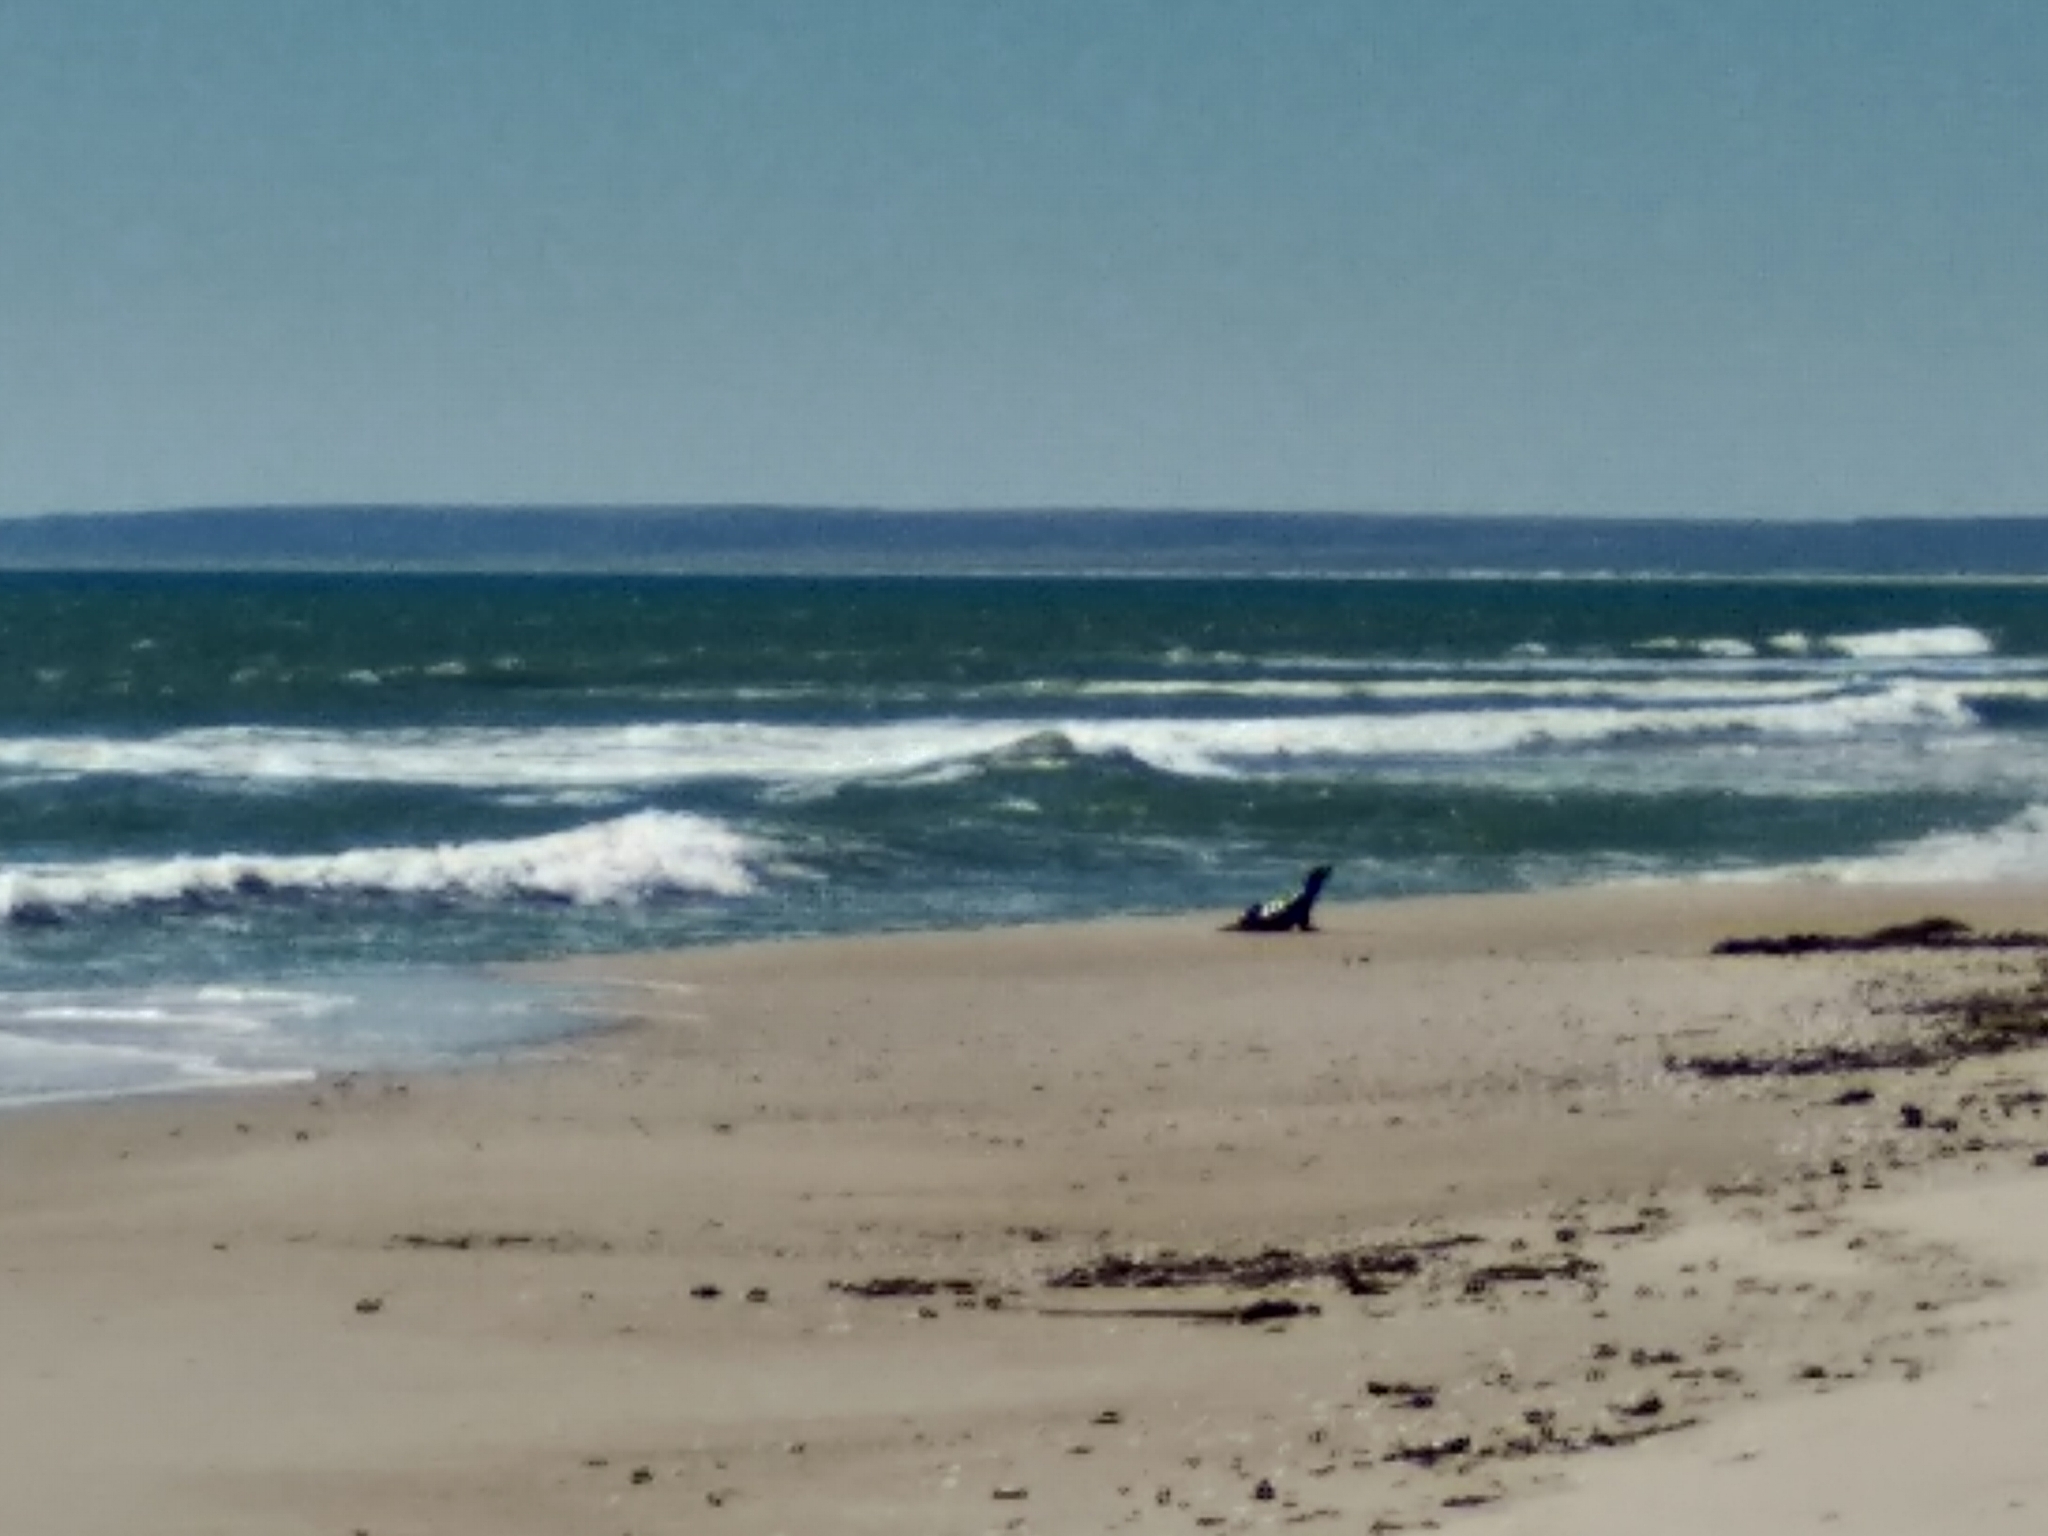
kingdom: Animalia
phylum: Chordata
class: Mammalia
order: Carnivora
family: Otariidae
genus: Arctocephalus
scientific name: Arctocephalus pusillus
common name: Brown fur seal
